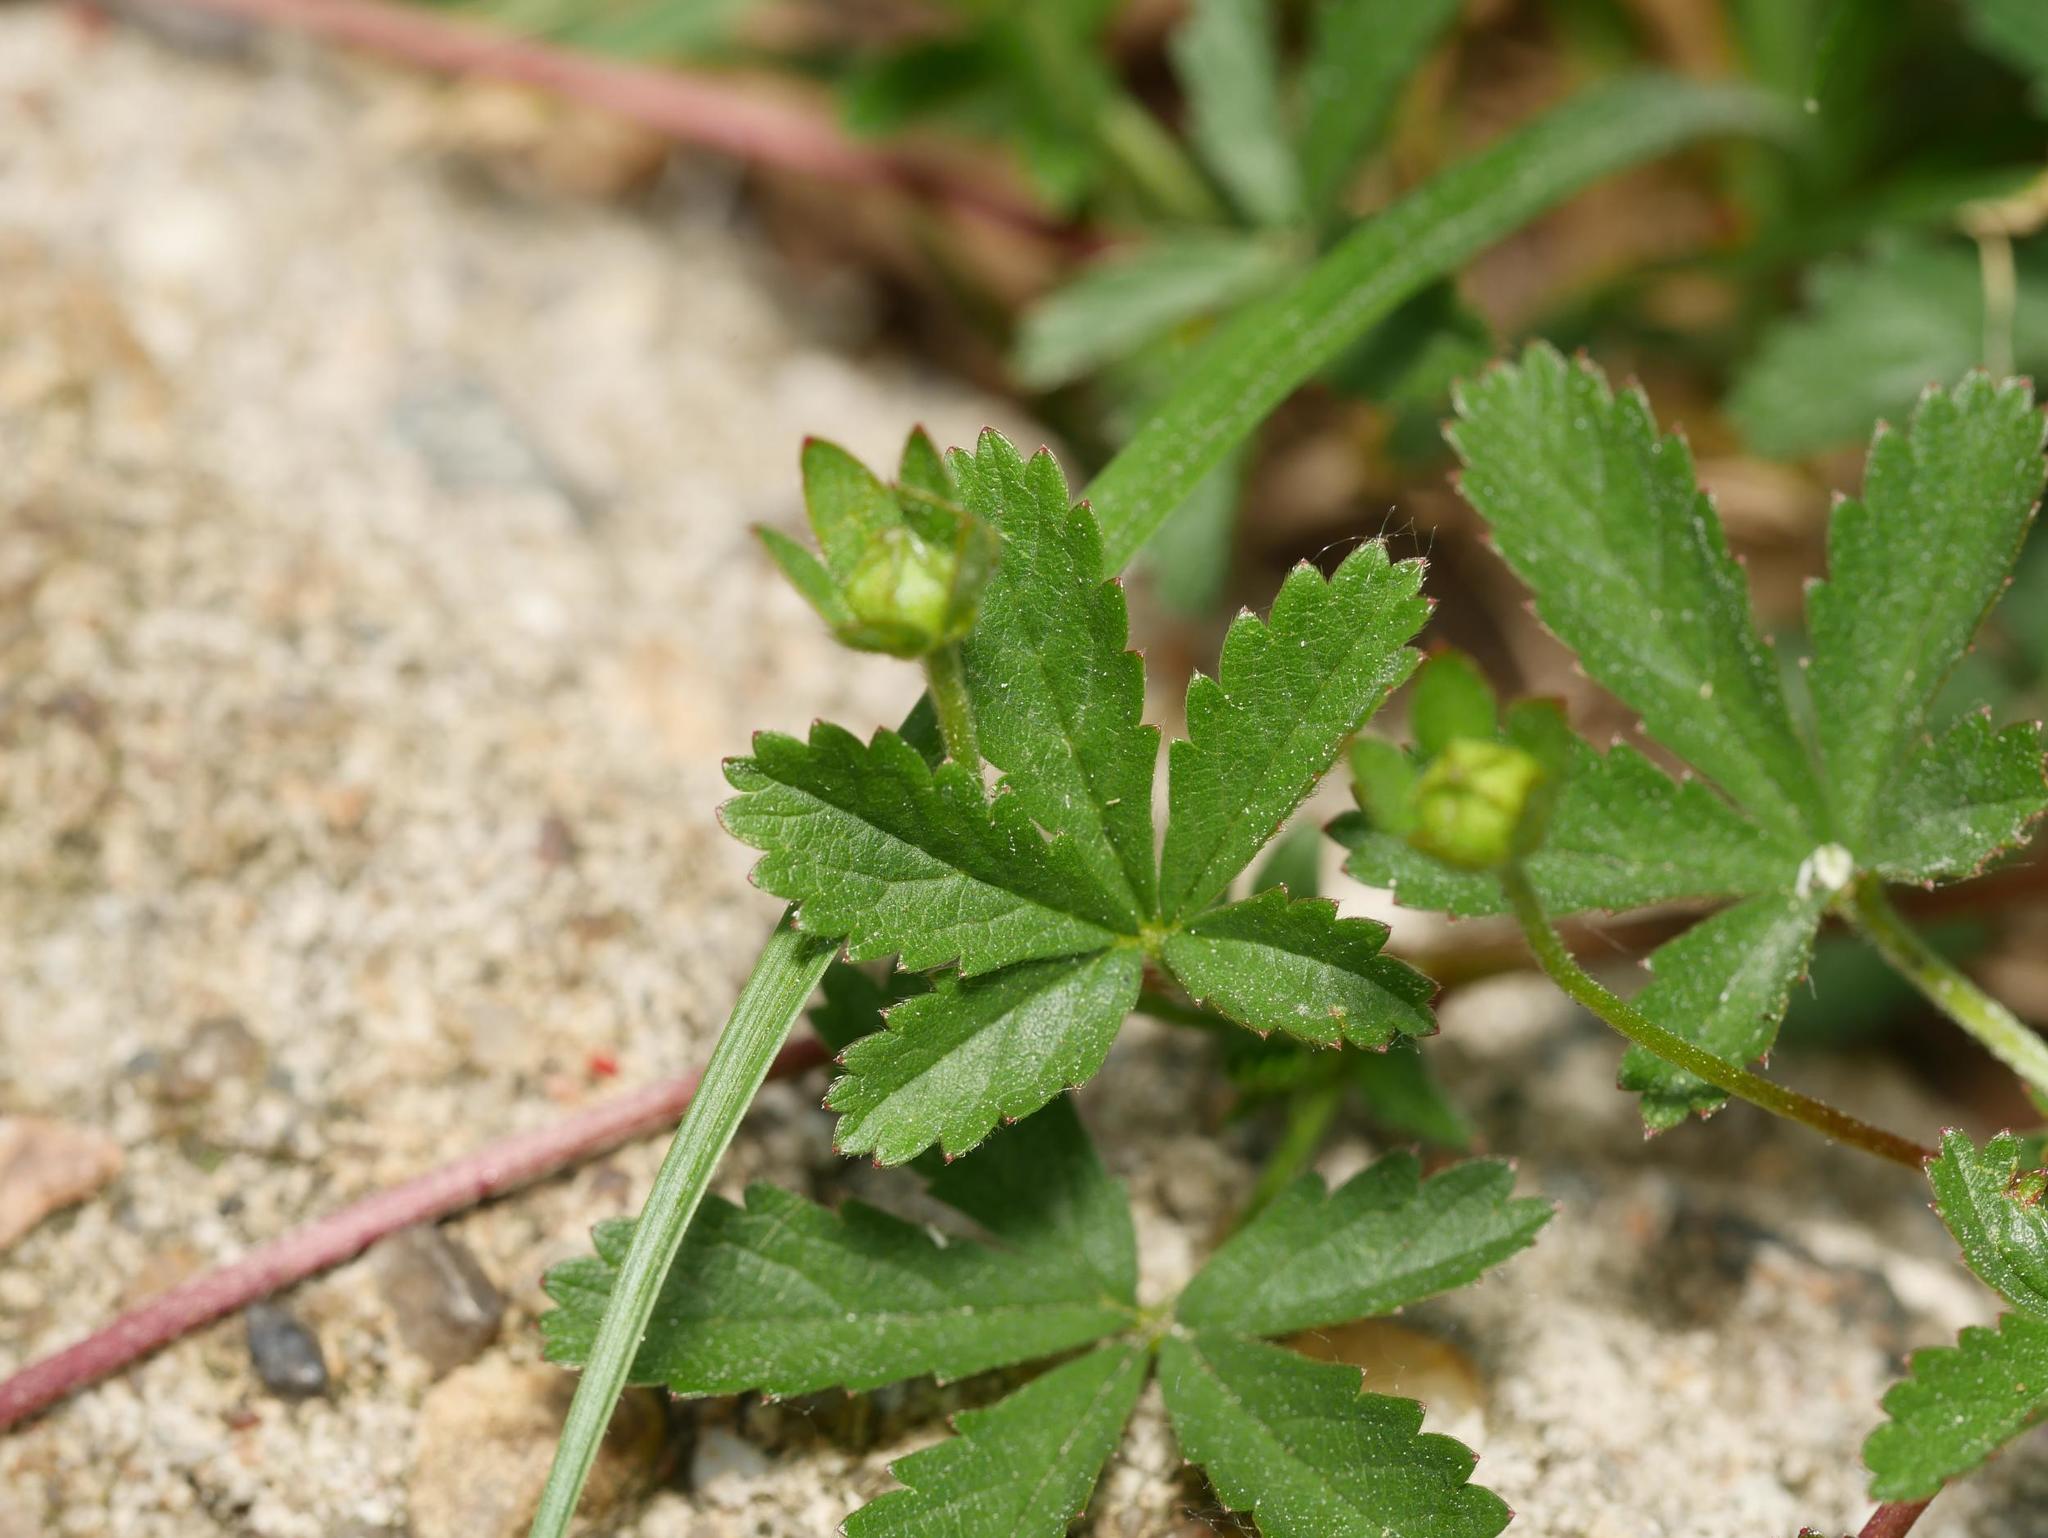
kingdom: Plantae
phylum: Tracheophyta
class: Magnoliopsida
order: Rosales
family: Rosaceae
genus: Potentilla
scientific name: Potentilla reptans
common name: Creeping cinquefoil
